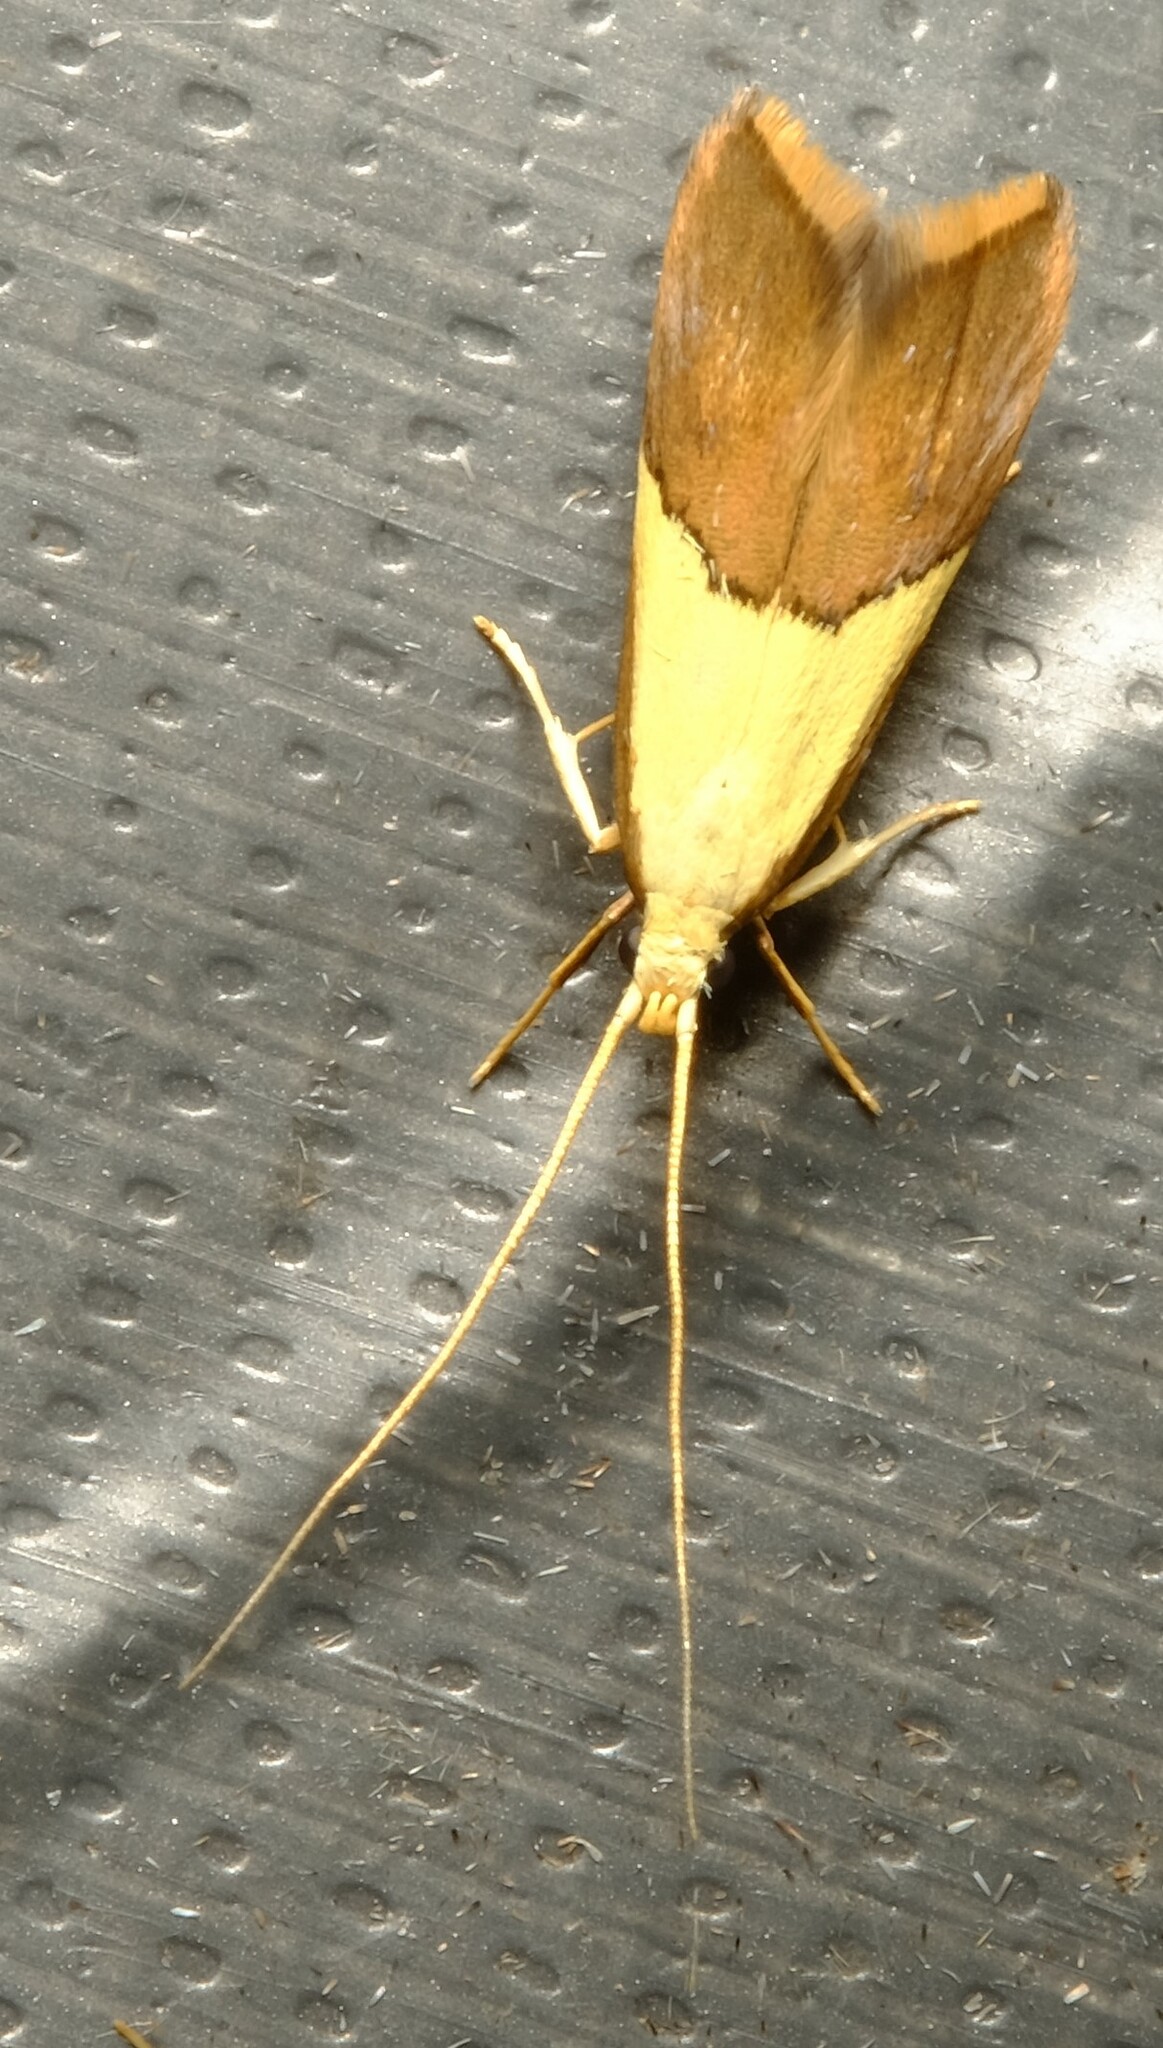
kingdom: Animalia
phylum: Arthropoda
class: Insecta
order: Lepidoptera
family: Lecithoceridae
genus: Crocanthes
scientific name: Crocanthes glycina
